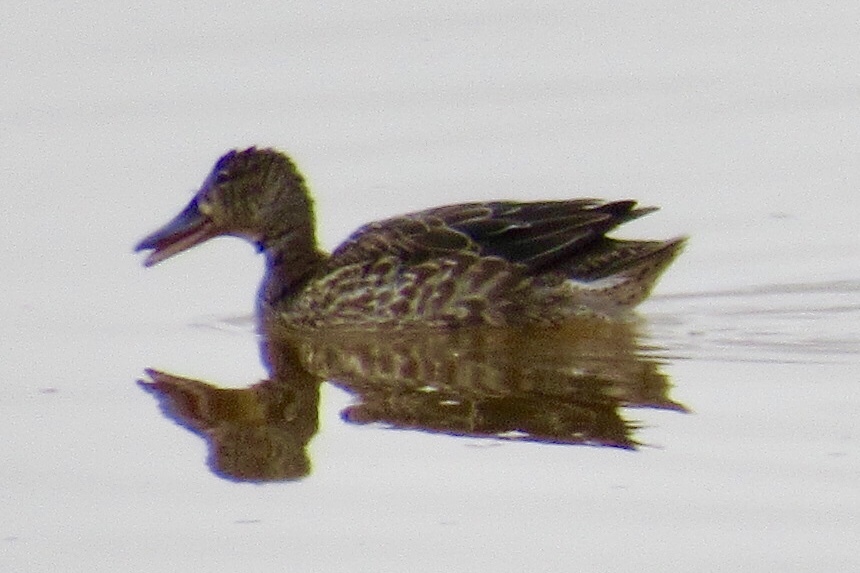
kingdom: Animalia
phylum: Chordata
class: Aves
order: Anseriformes
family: Anatidae
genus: Spatula
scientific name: Spatula discors
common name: Blue-winged teal
